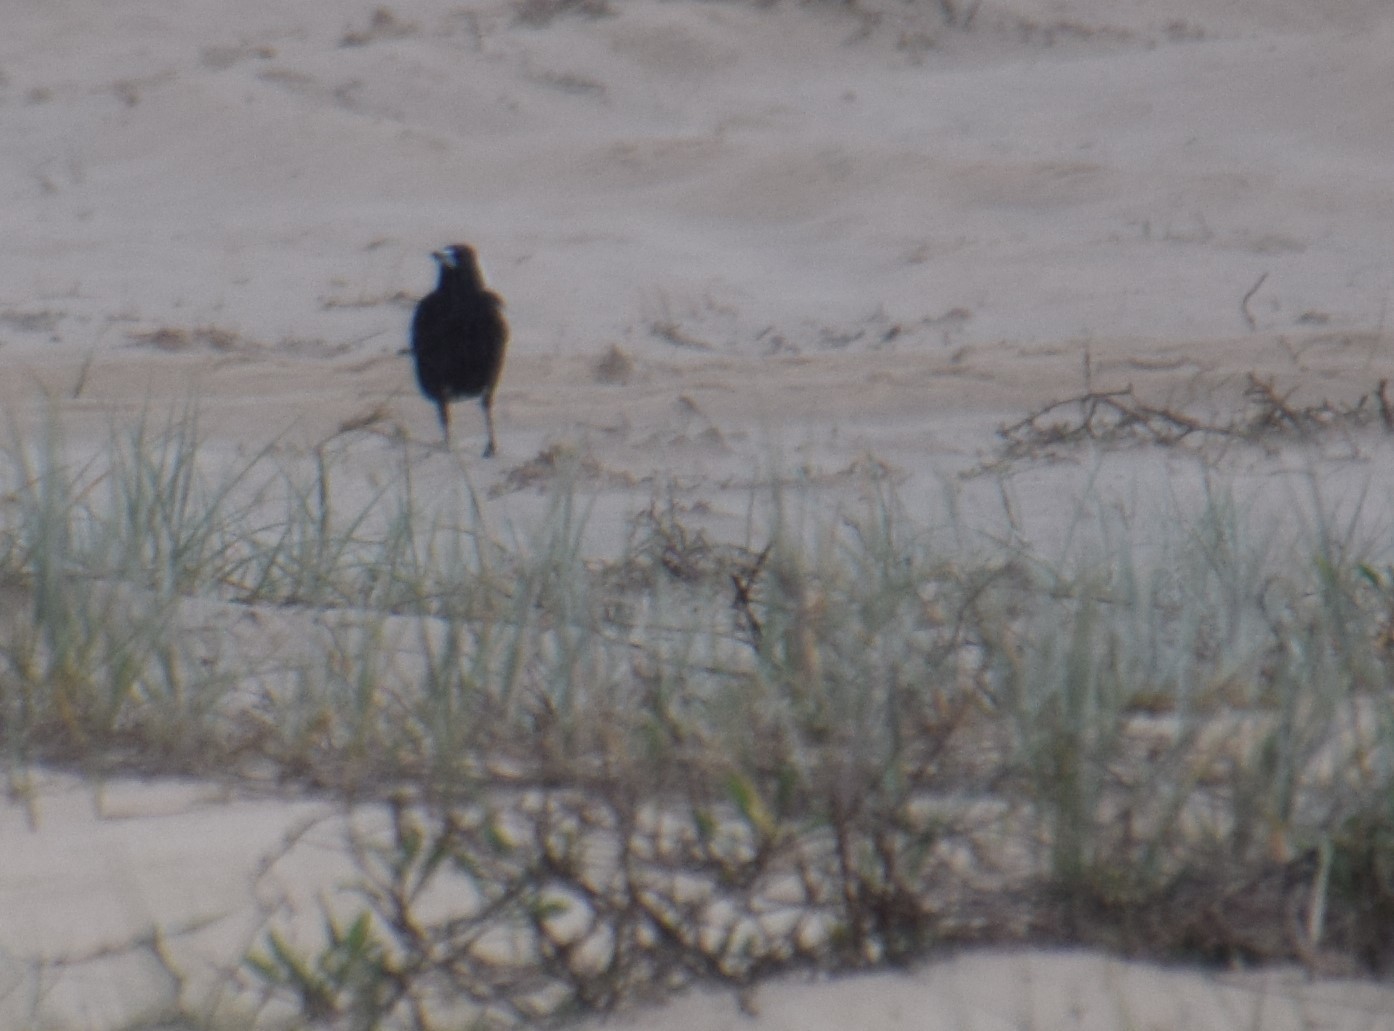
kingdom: Animalia
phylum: Chordata
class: Aves
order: Passeriformes
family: Cracticidae
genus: Gymnorhina
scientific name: Gymnorhina tibicen
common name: Australian magpie
